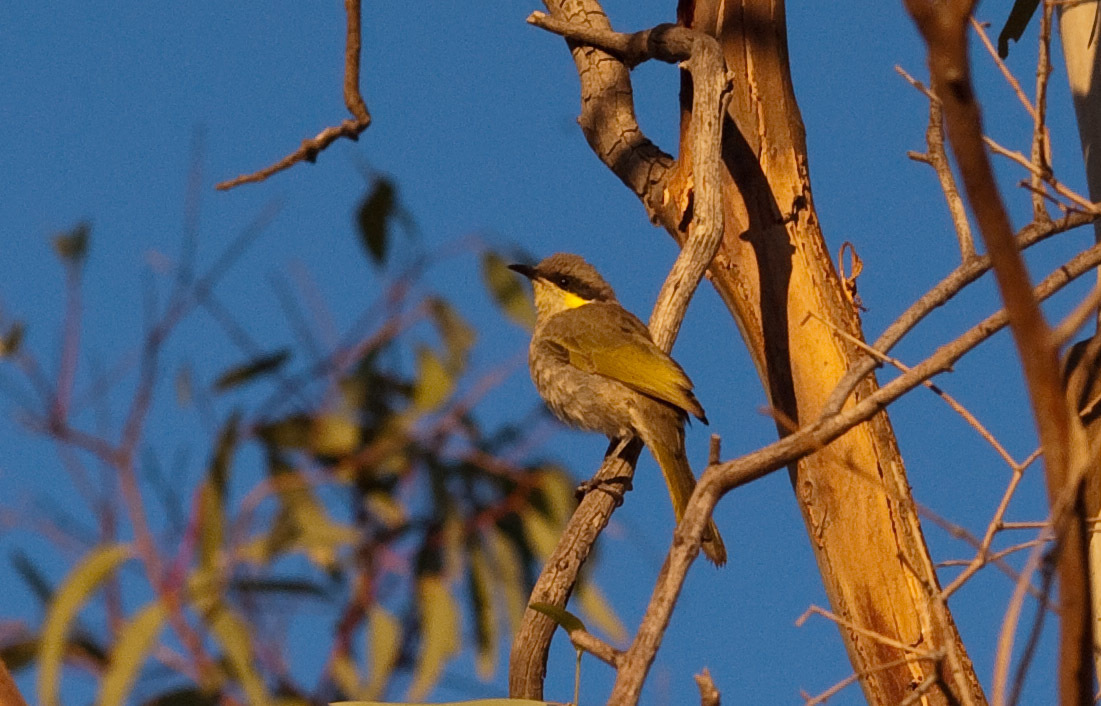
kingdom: Animalia
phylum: Chordata
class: Aves
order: Passeriformes
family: Meliphagidae
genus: Gavicalis
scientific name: Gavicalis virescens
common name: Singing honeyeater
